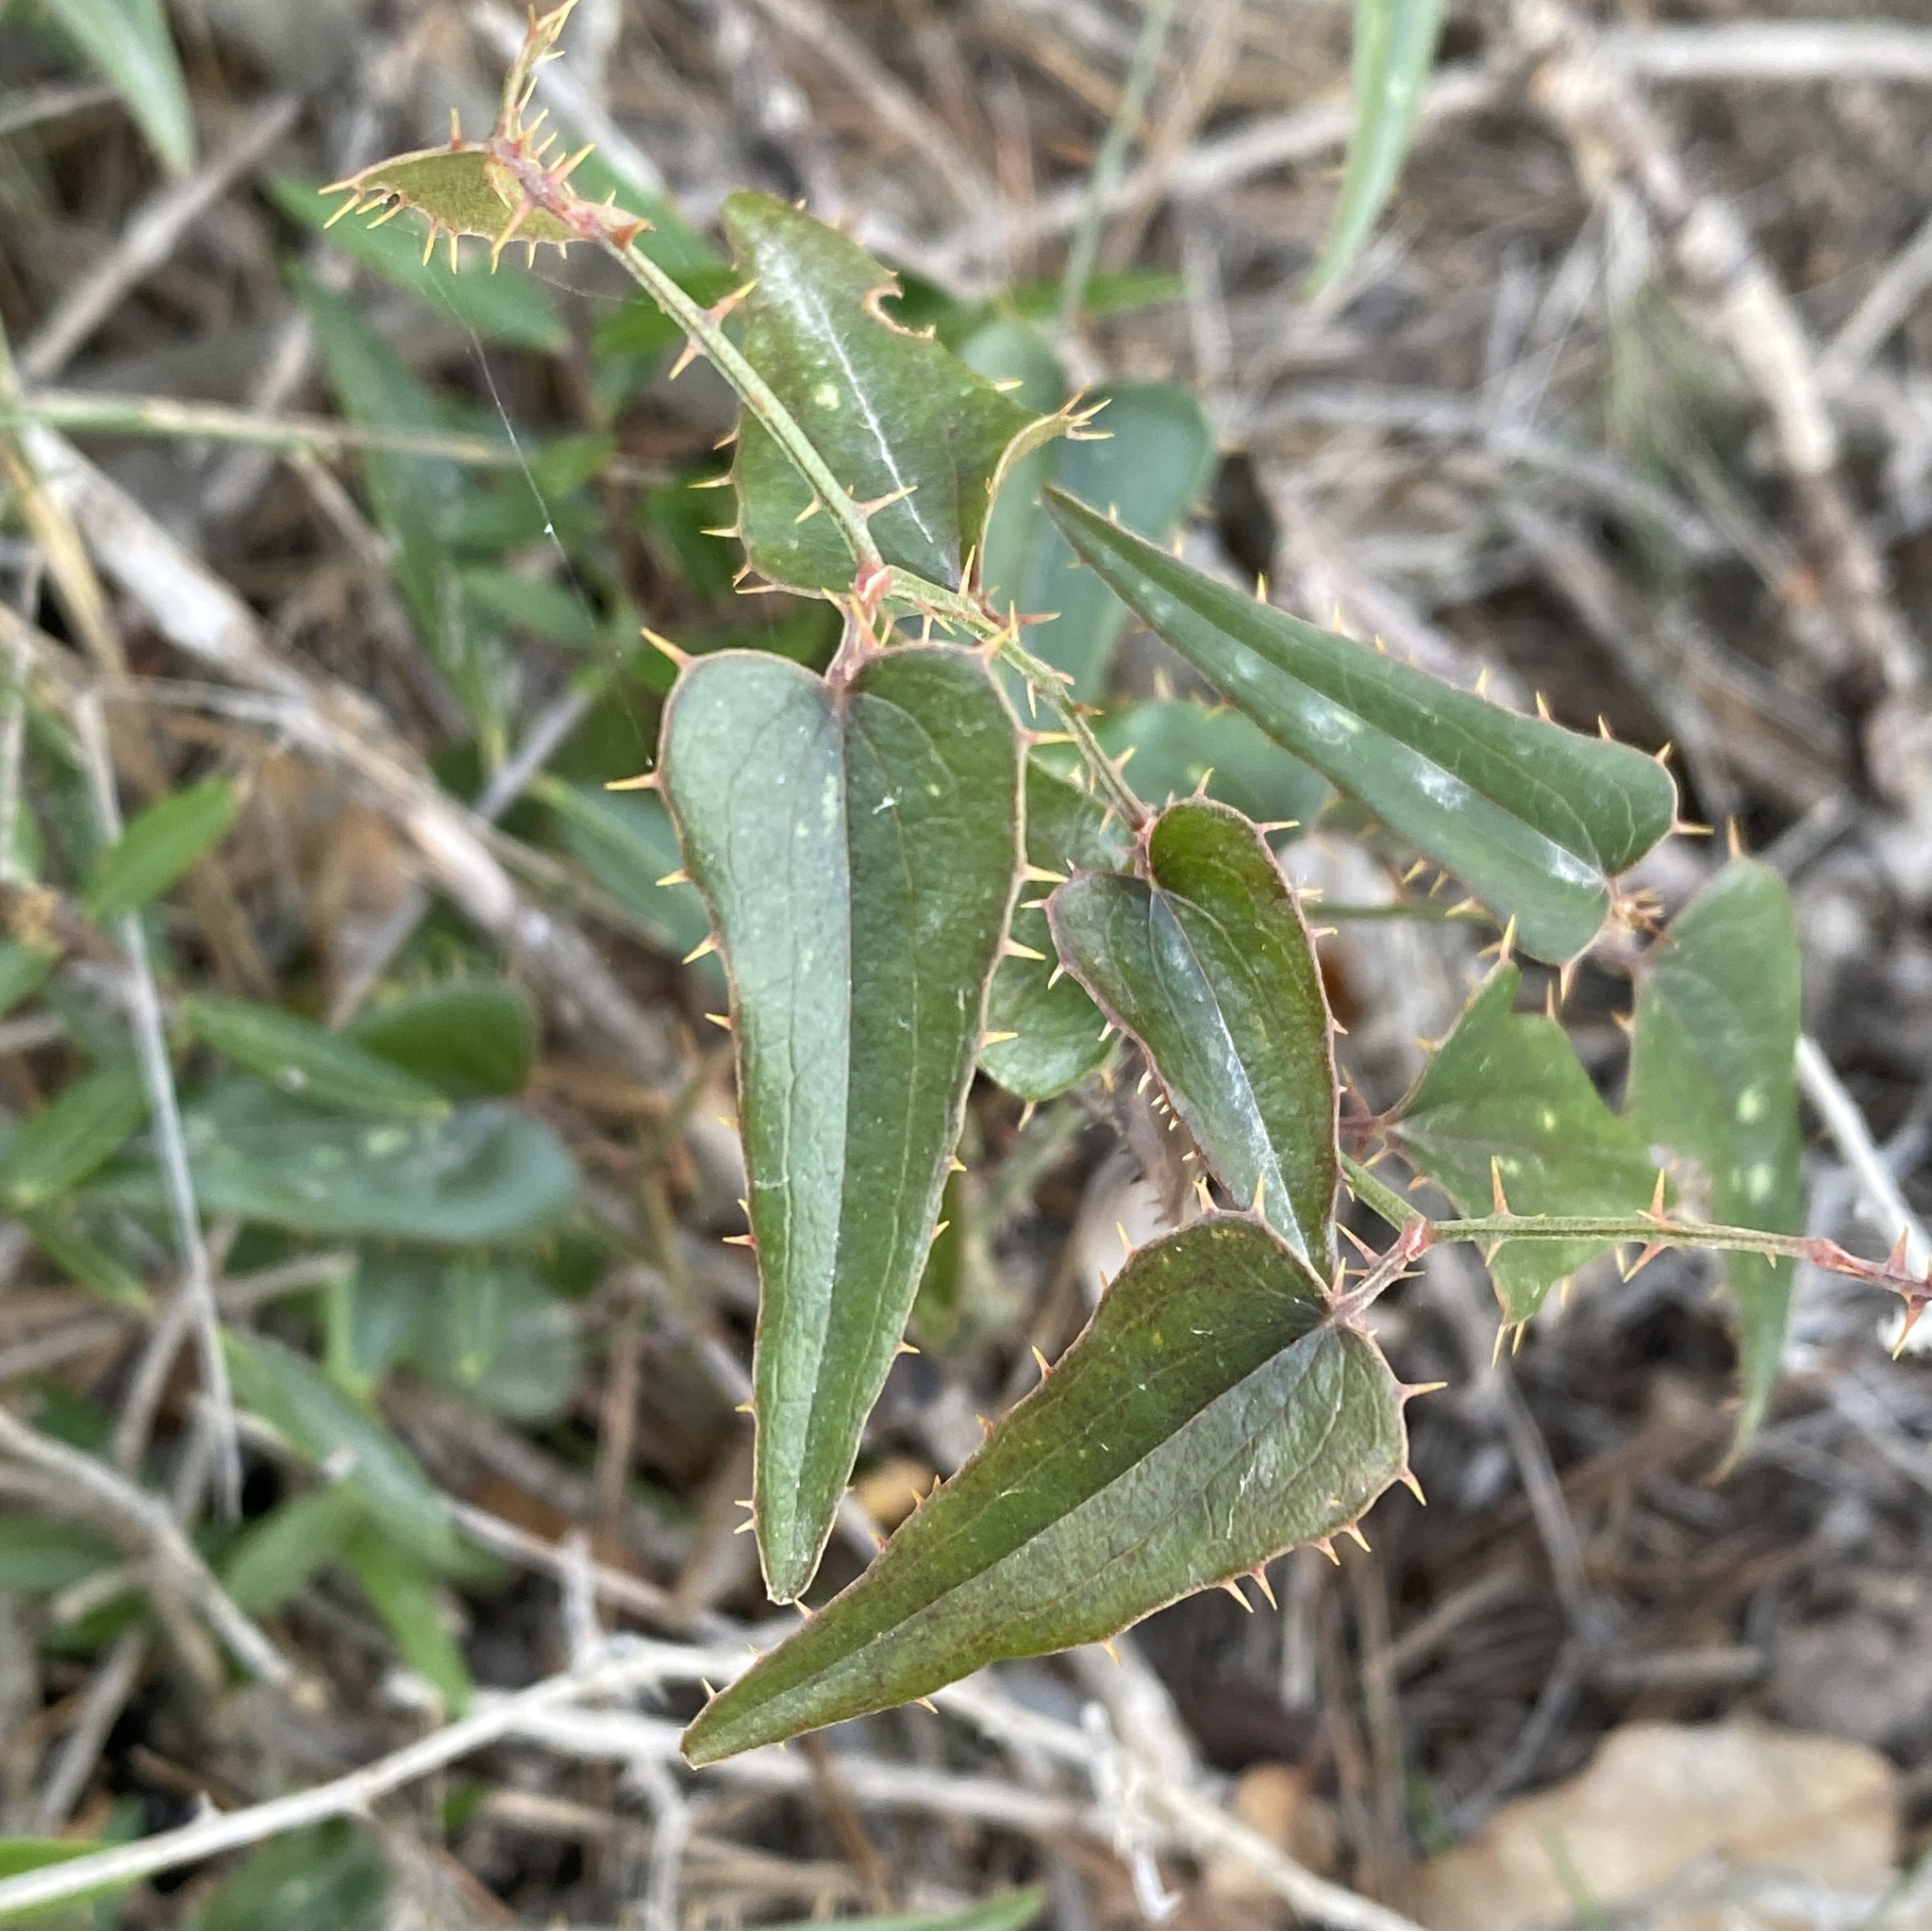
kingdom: Plantae
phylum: Tracheophyta
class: Liliopsida
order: Liliales
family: Smilacaceae
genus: Smilax
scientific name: Smilax aspera
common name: Common smilax
